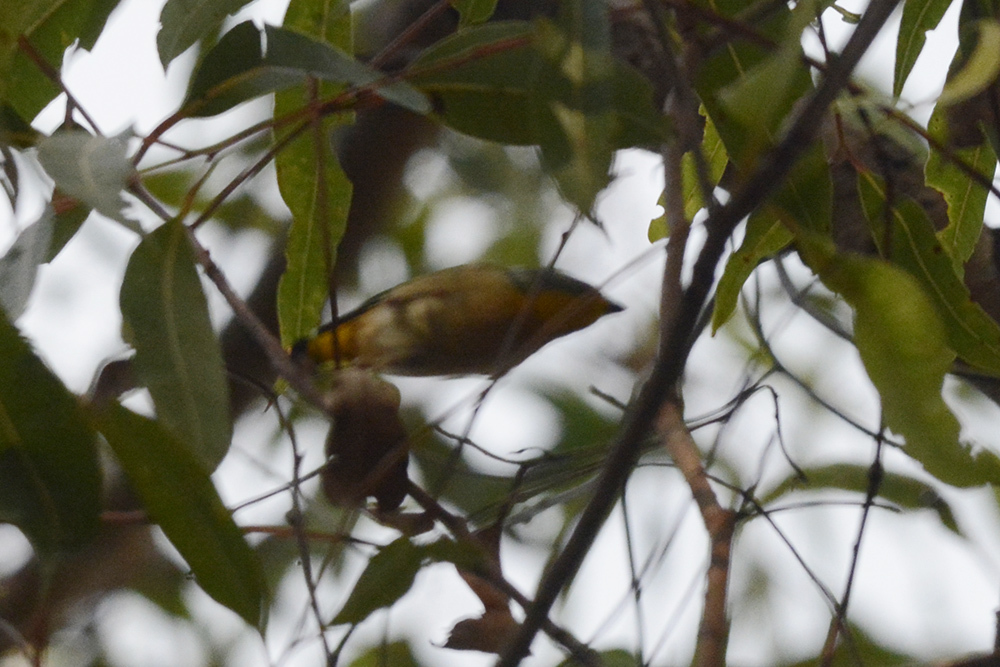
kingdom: Animalia
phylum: Chordata
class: Aves
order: Passeriformes
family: Pardalotidae
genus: Pardalotus
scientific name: Pardalotus punctatus
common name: Spotted pardalote
